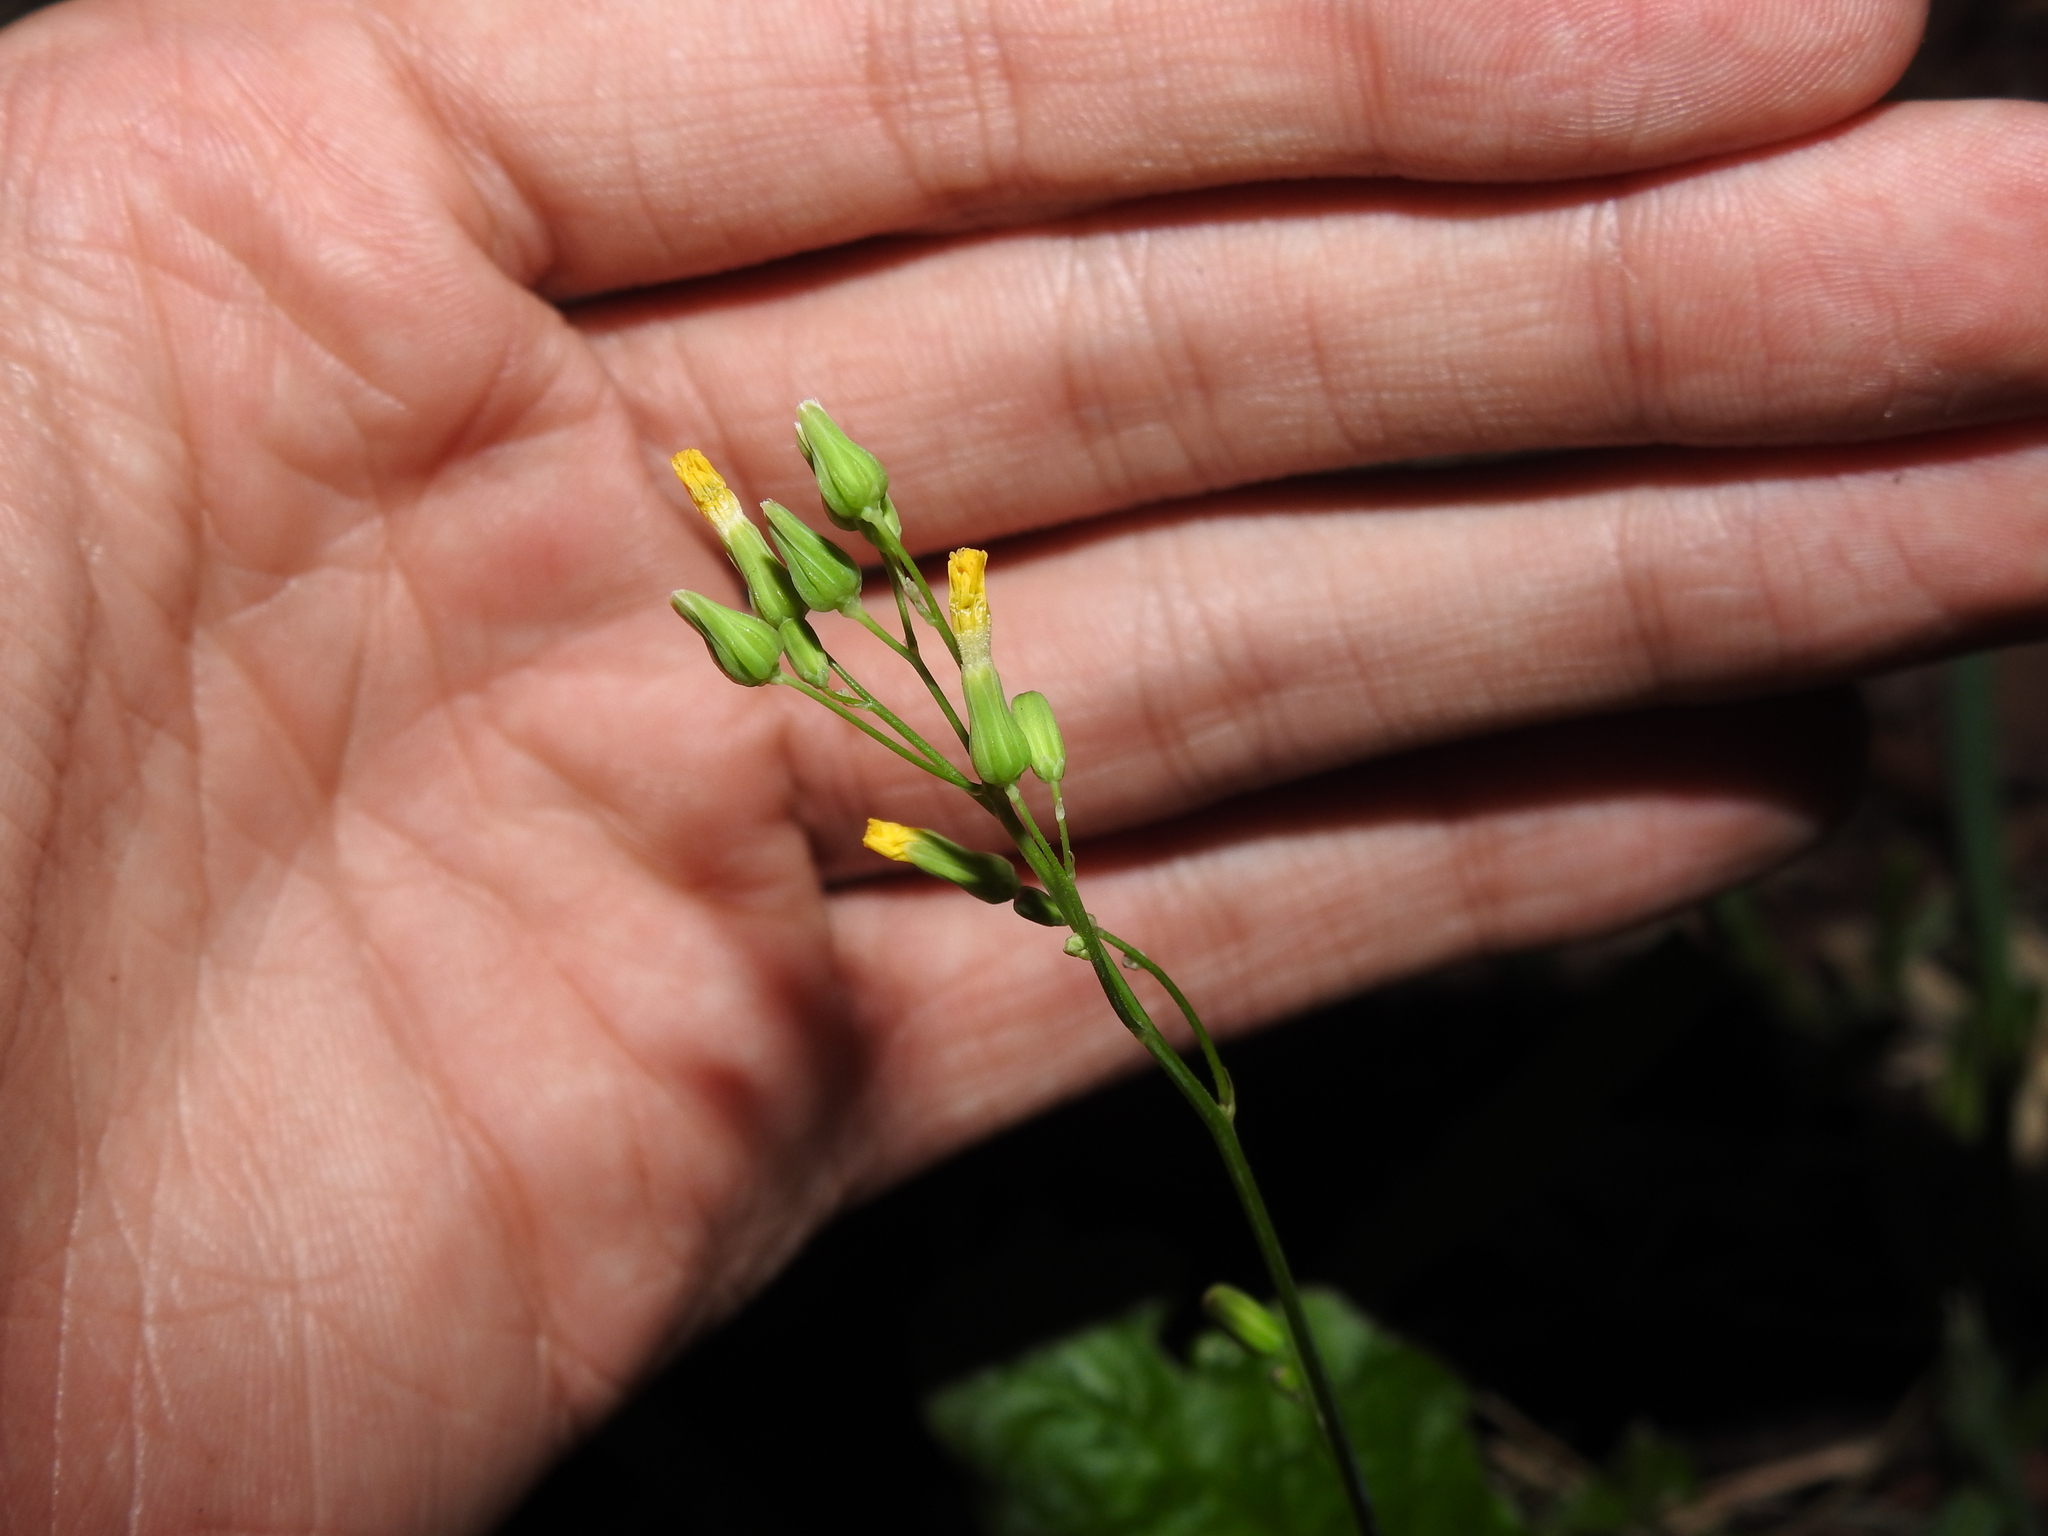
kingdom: Plantae
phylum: Tracheophyta
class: Magnoliopsida
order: Asterales
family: Asteraceae
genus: Youngia
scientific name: Youngia japonica
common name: Oriental false hawksbeard
